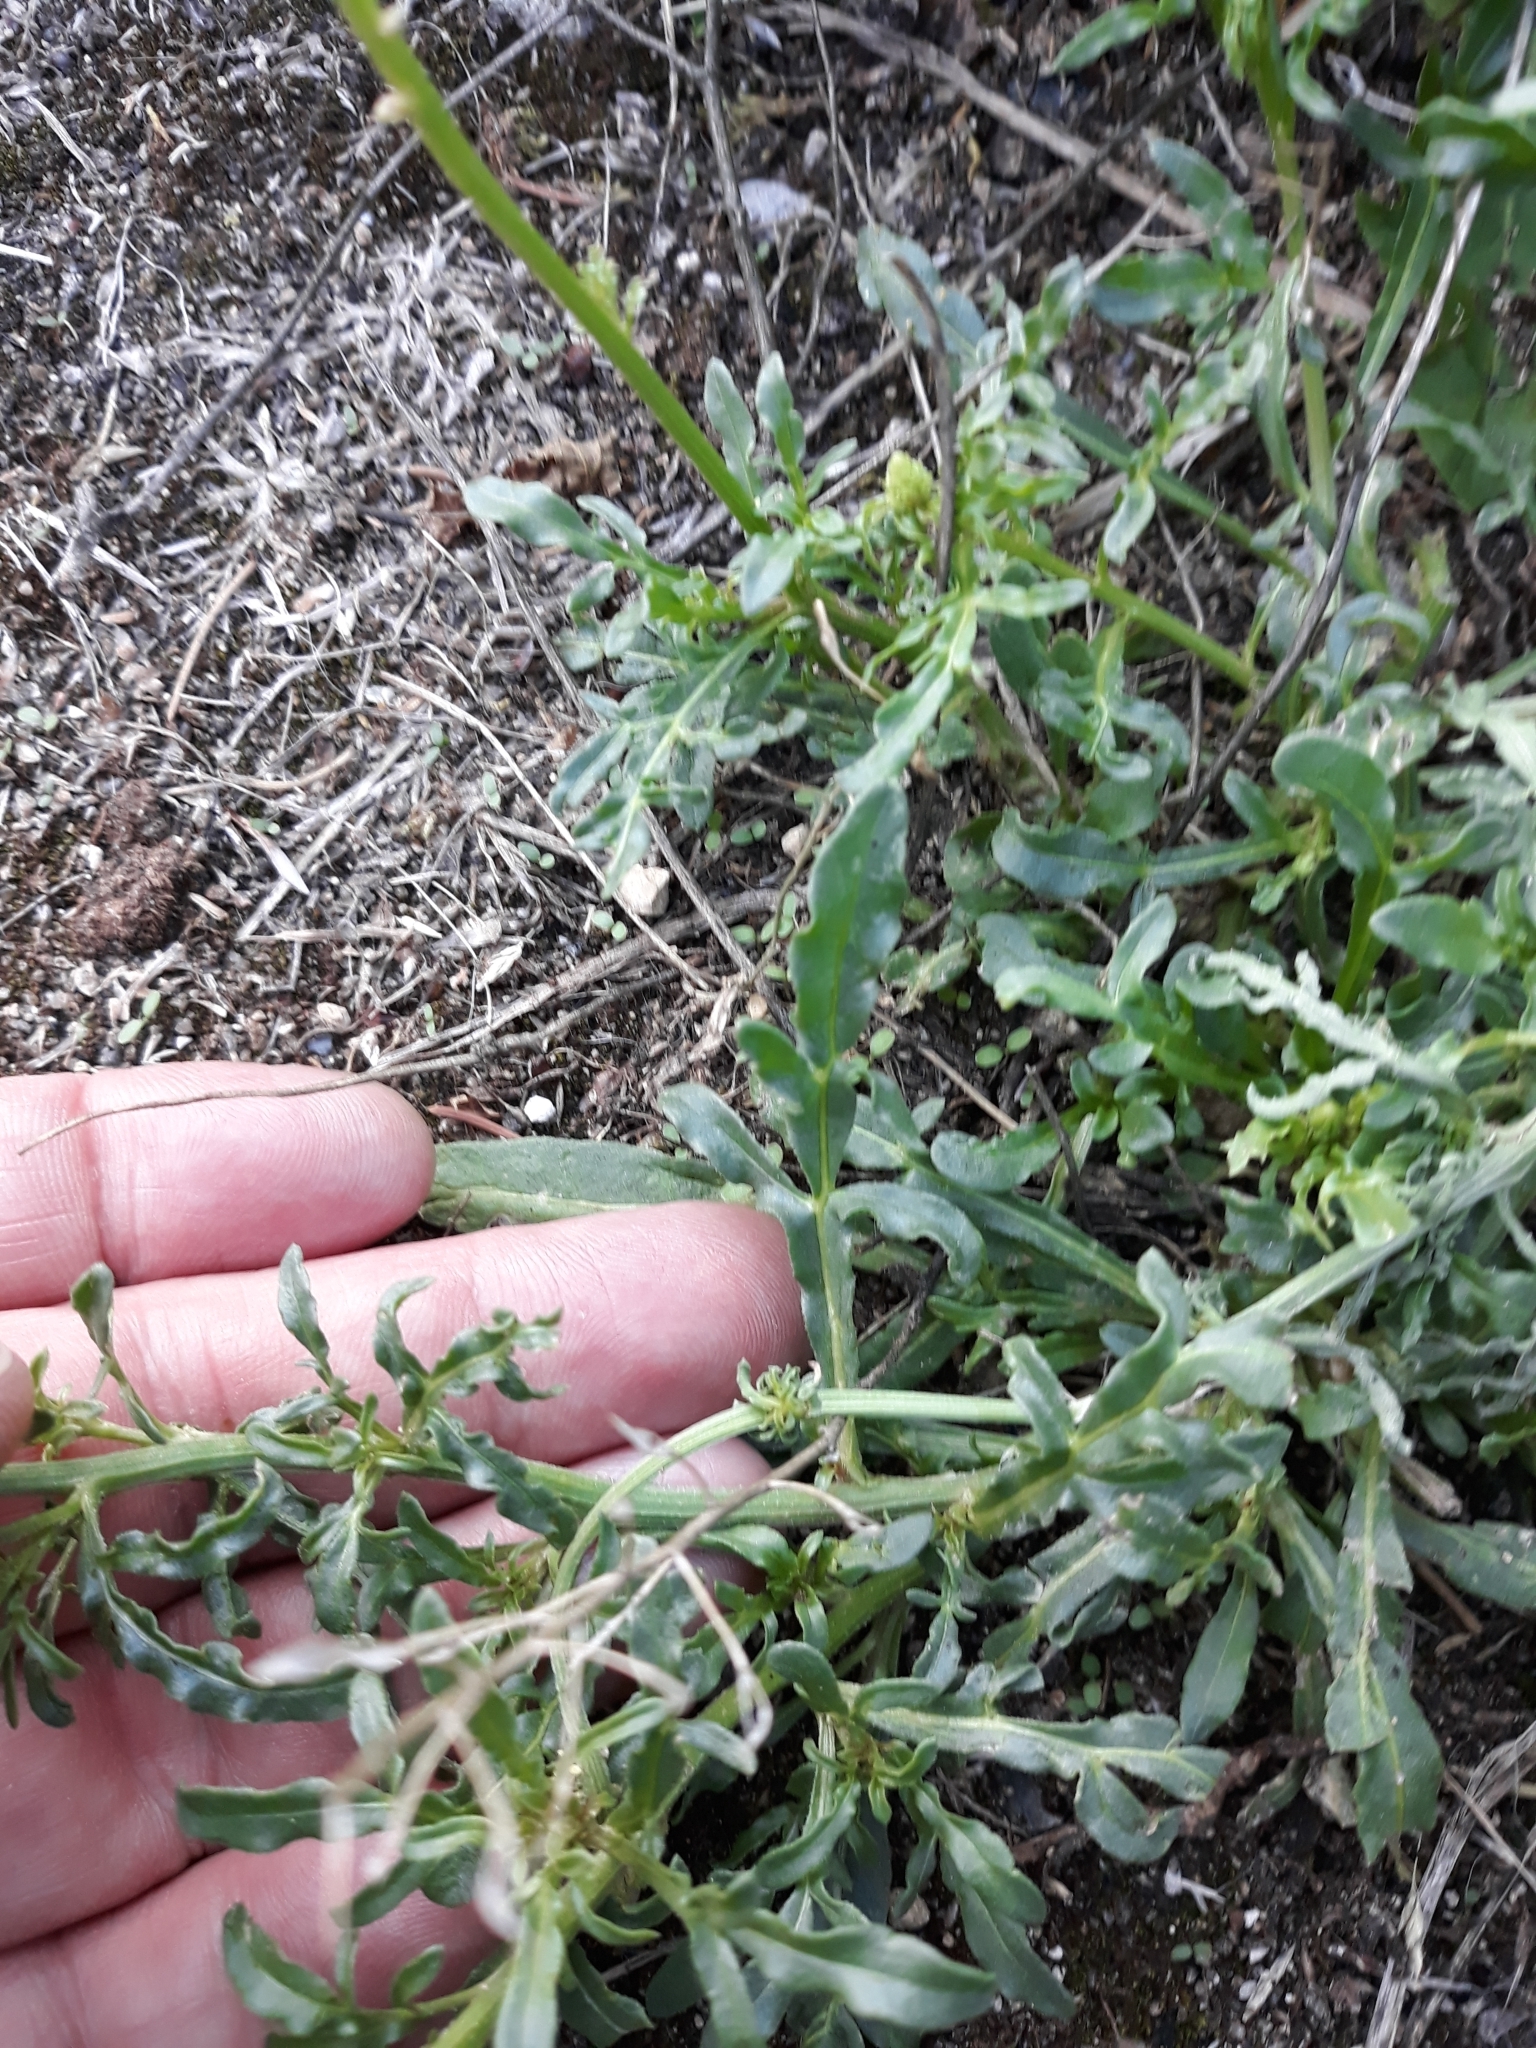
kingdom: Plantae
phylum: Tracheophyta
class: Magnoliopsida
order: Brassicales
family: Resedaceae
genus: Reseda
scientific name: Reseda lutea
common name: Wild mignonette
